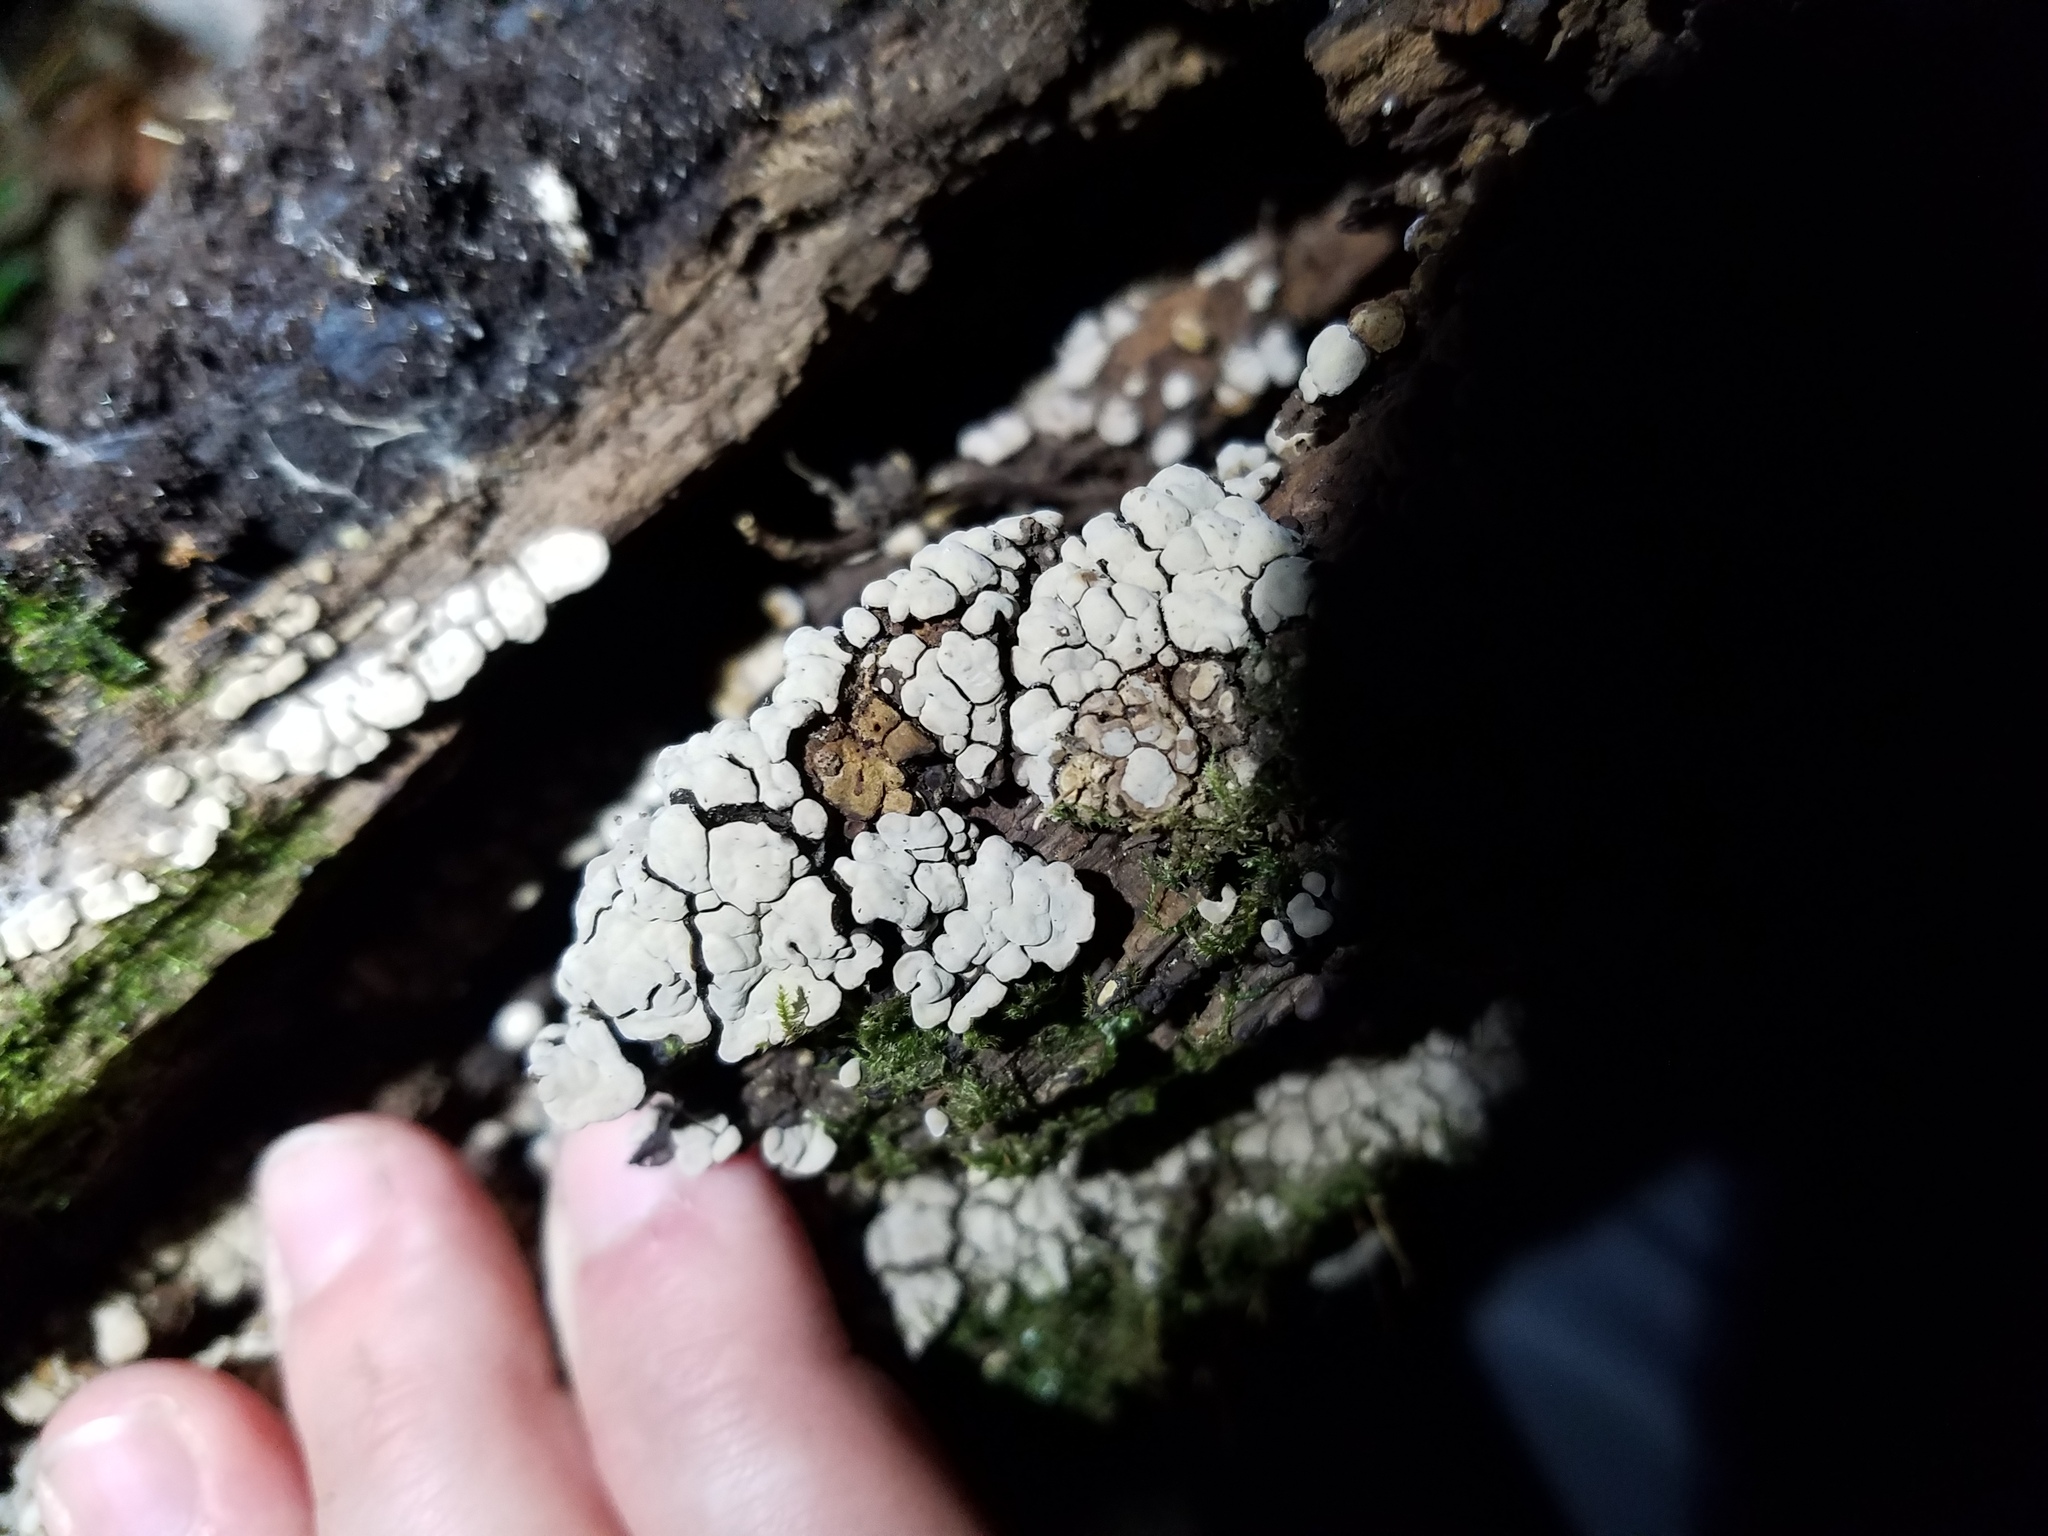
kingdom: Fungi
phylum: Basidiomycota
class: Agaricomycetes
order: Russulales
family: Stereaceae
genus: Xylobolus
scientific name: Xylobolus frustulatus
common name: Ceramic parchment
